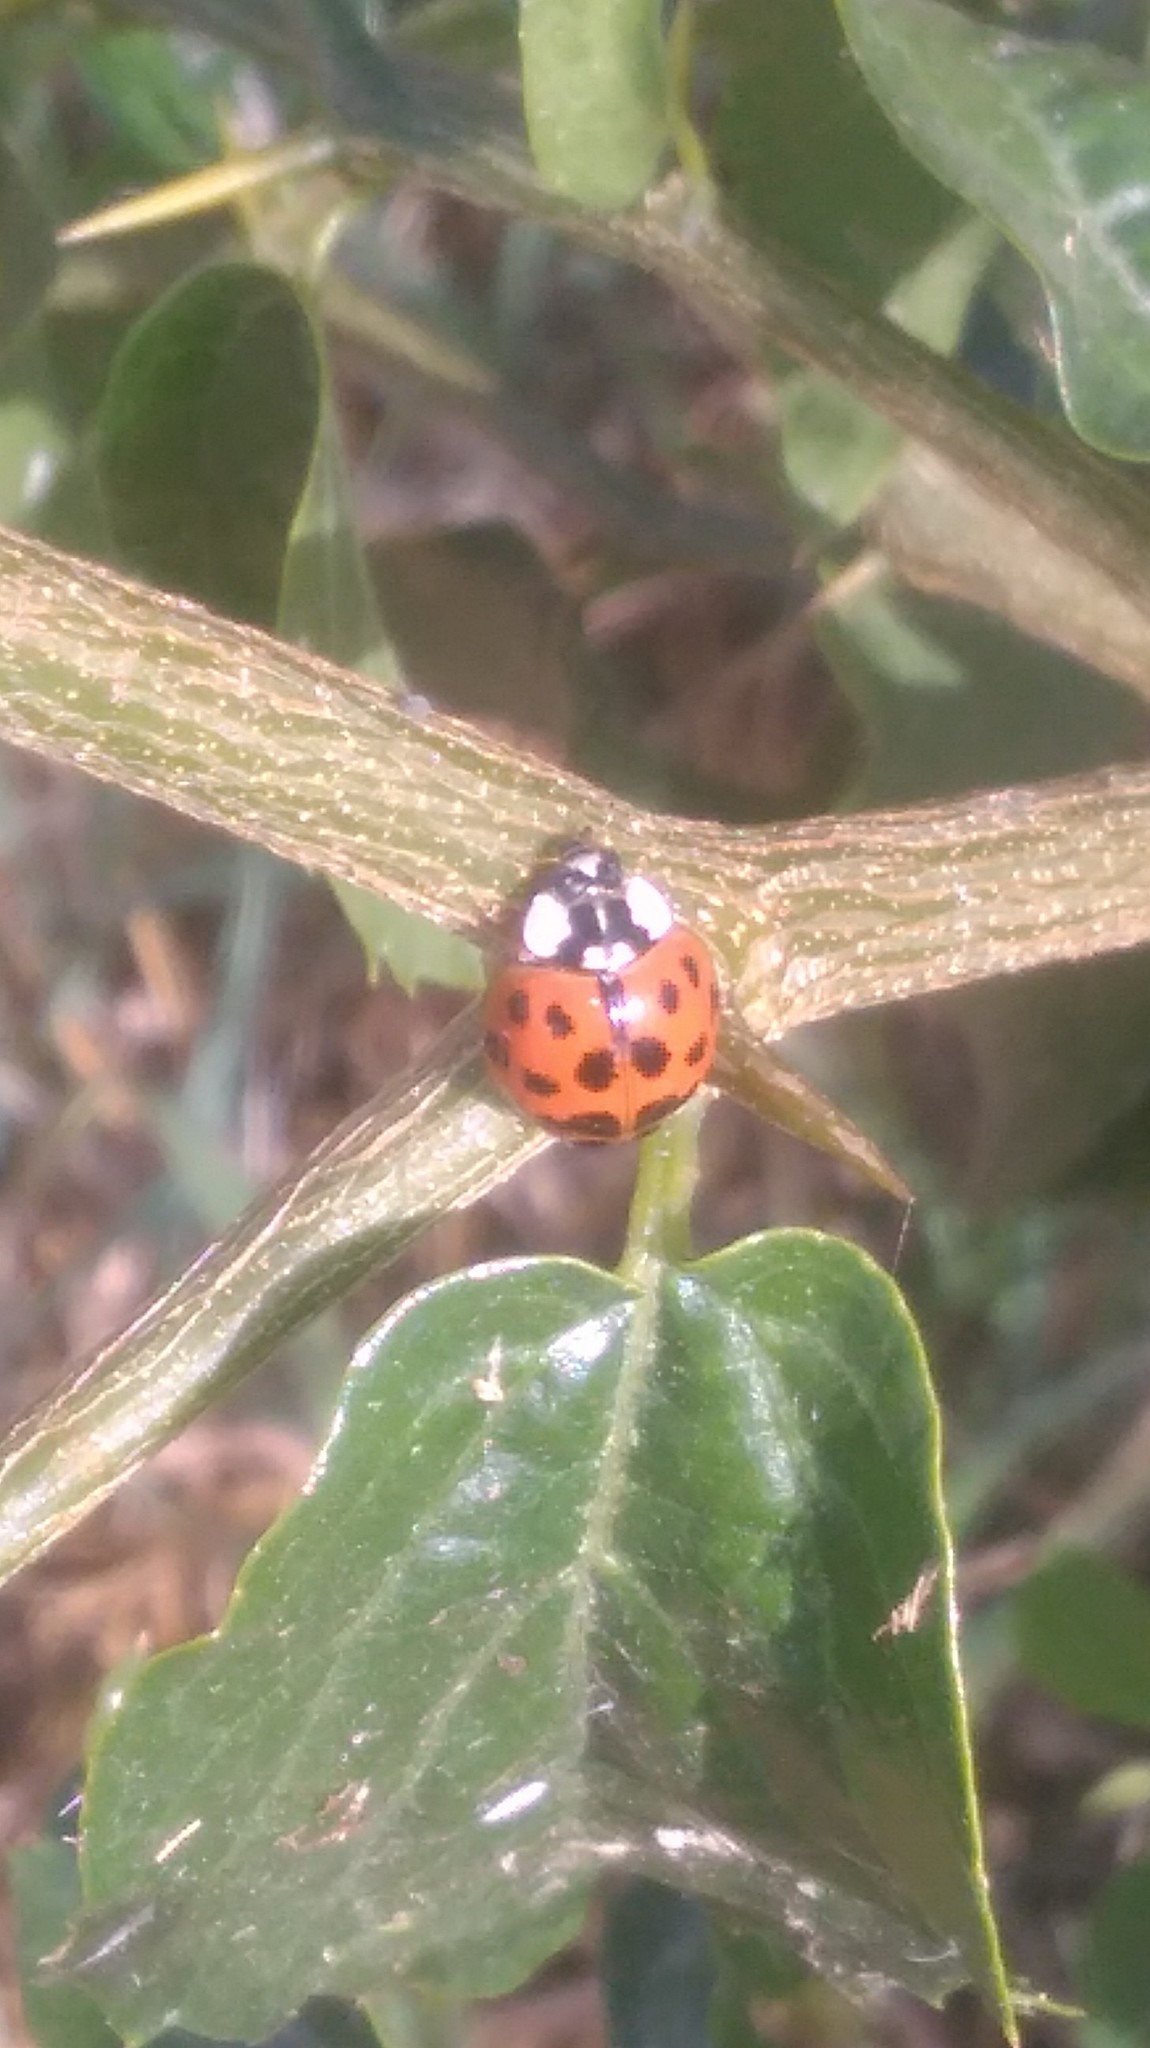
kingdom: Animalia
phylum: Arthropoda
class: Insecta
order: Coleoptera
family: Coccinellidae
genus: Harmonia
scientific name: Harmonia axyridis
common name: Harlequin ladybird
